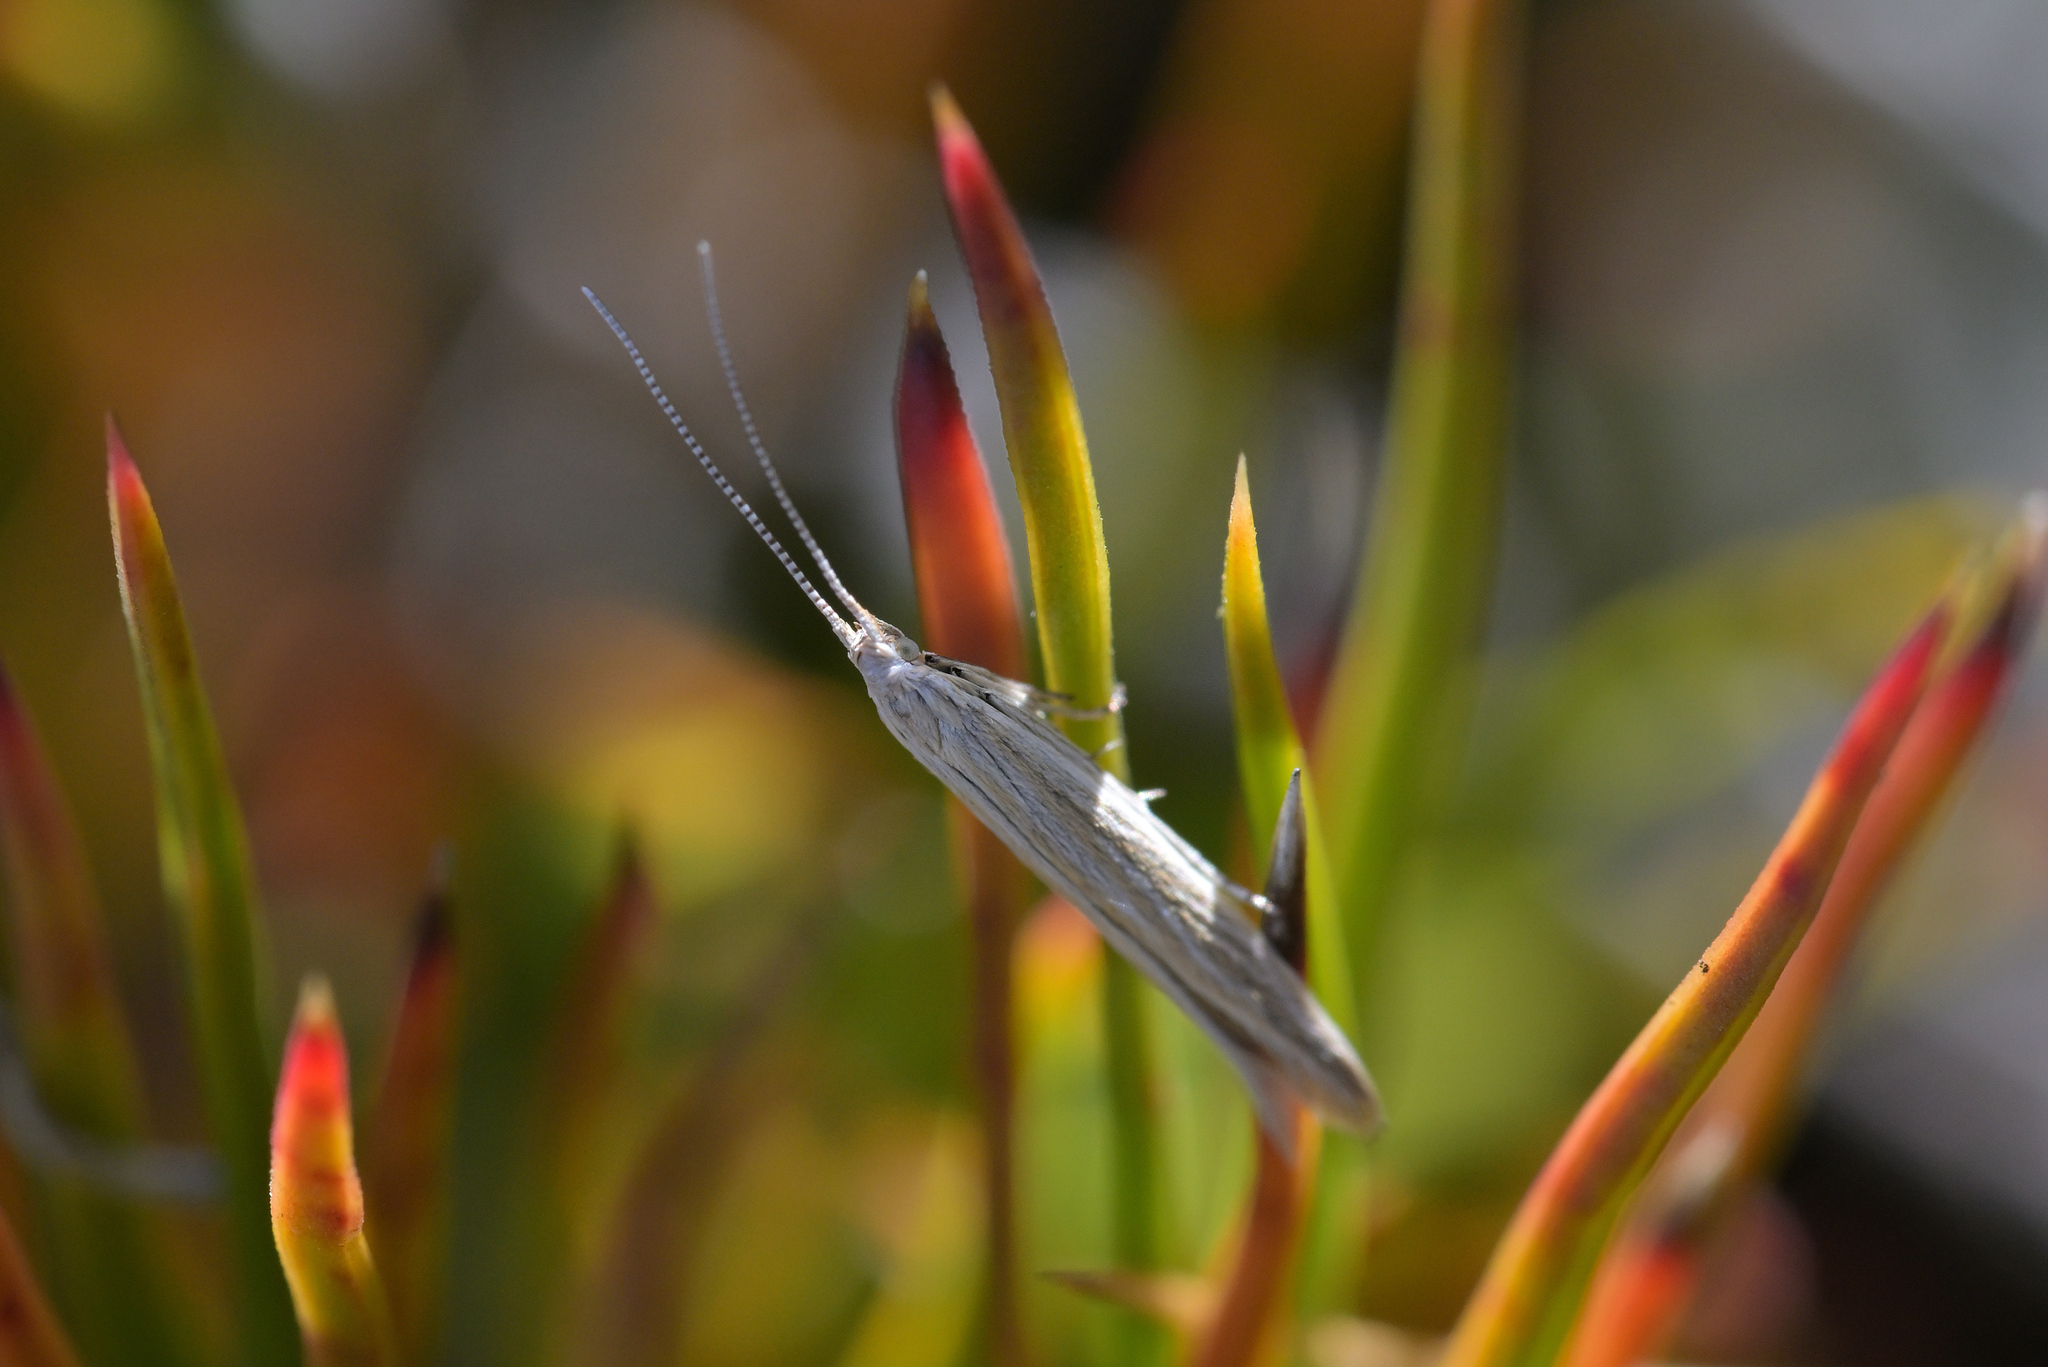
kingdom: Animalia
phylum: Arthropoda
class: Insecta
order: Lepidoptera
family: Coleophoridae
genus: Coleophora
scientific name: Coleophora striatipennella
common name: Hedge case-bearer
